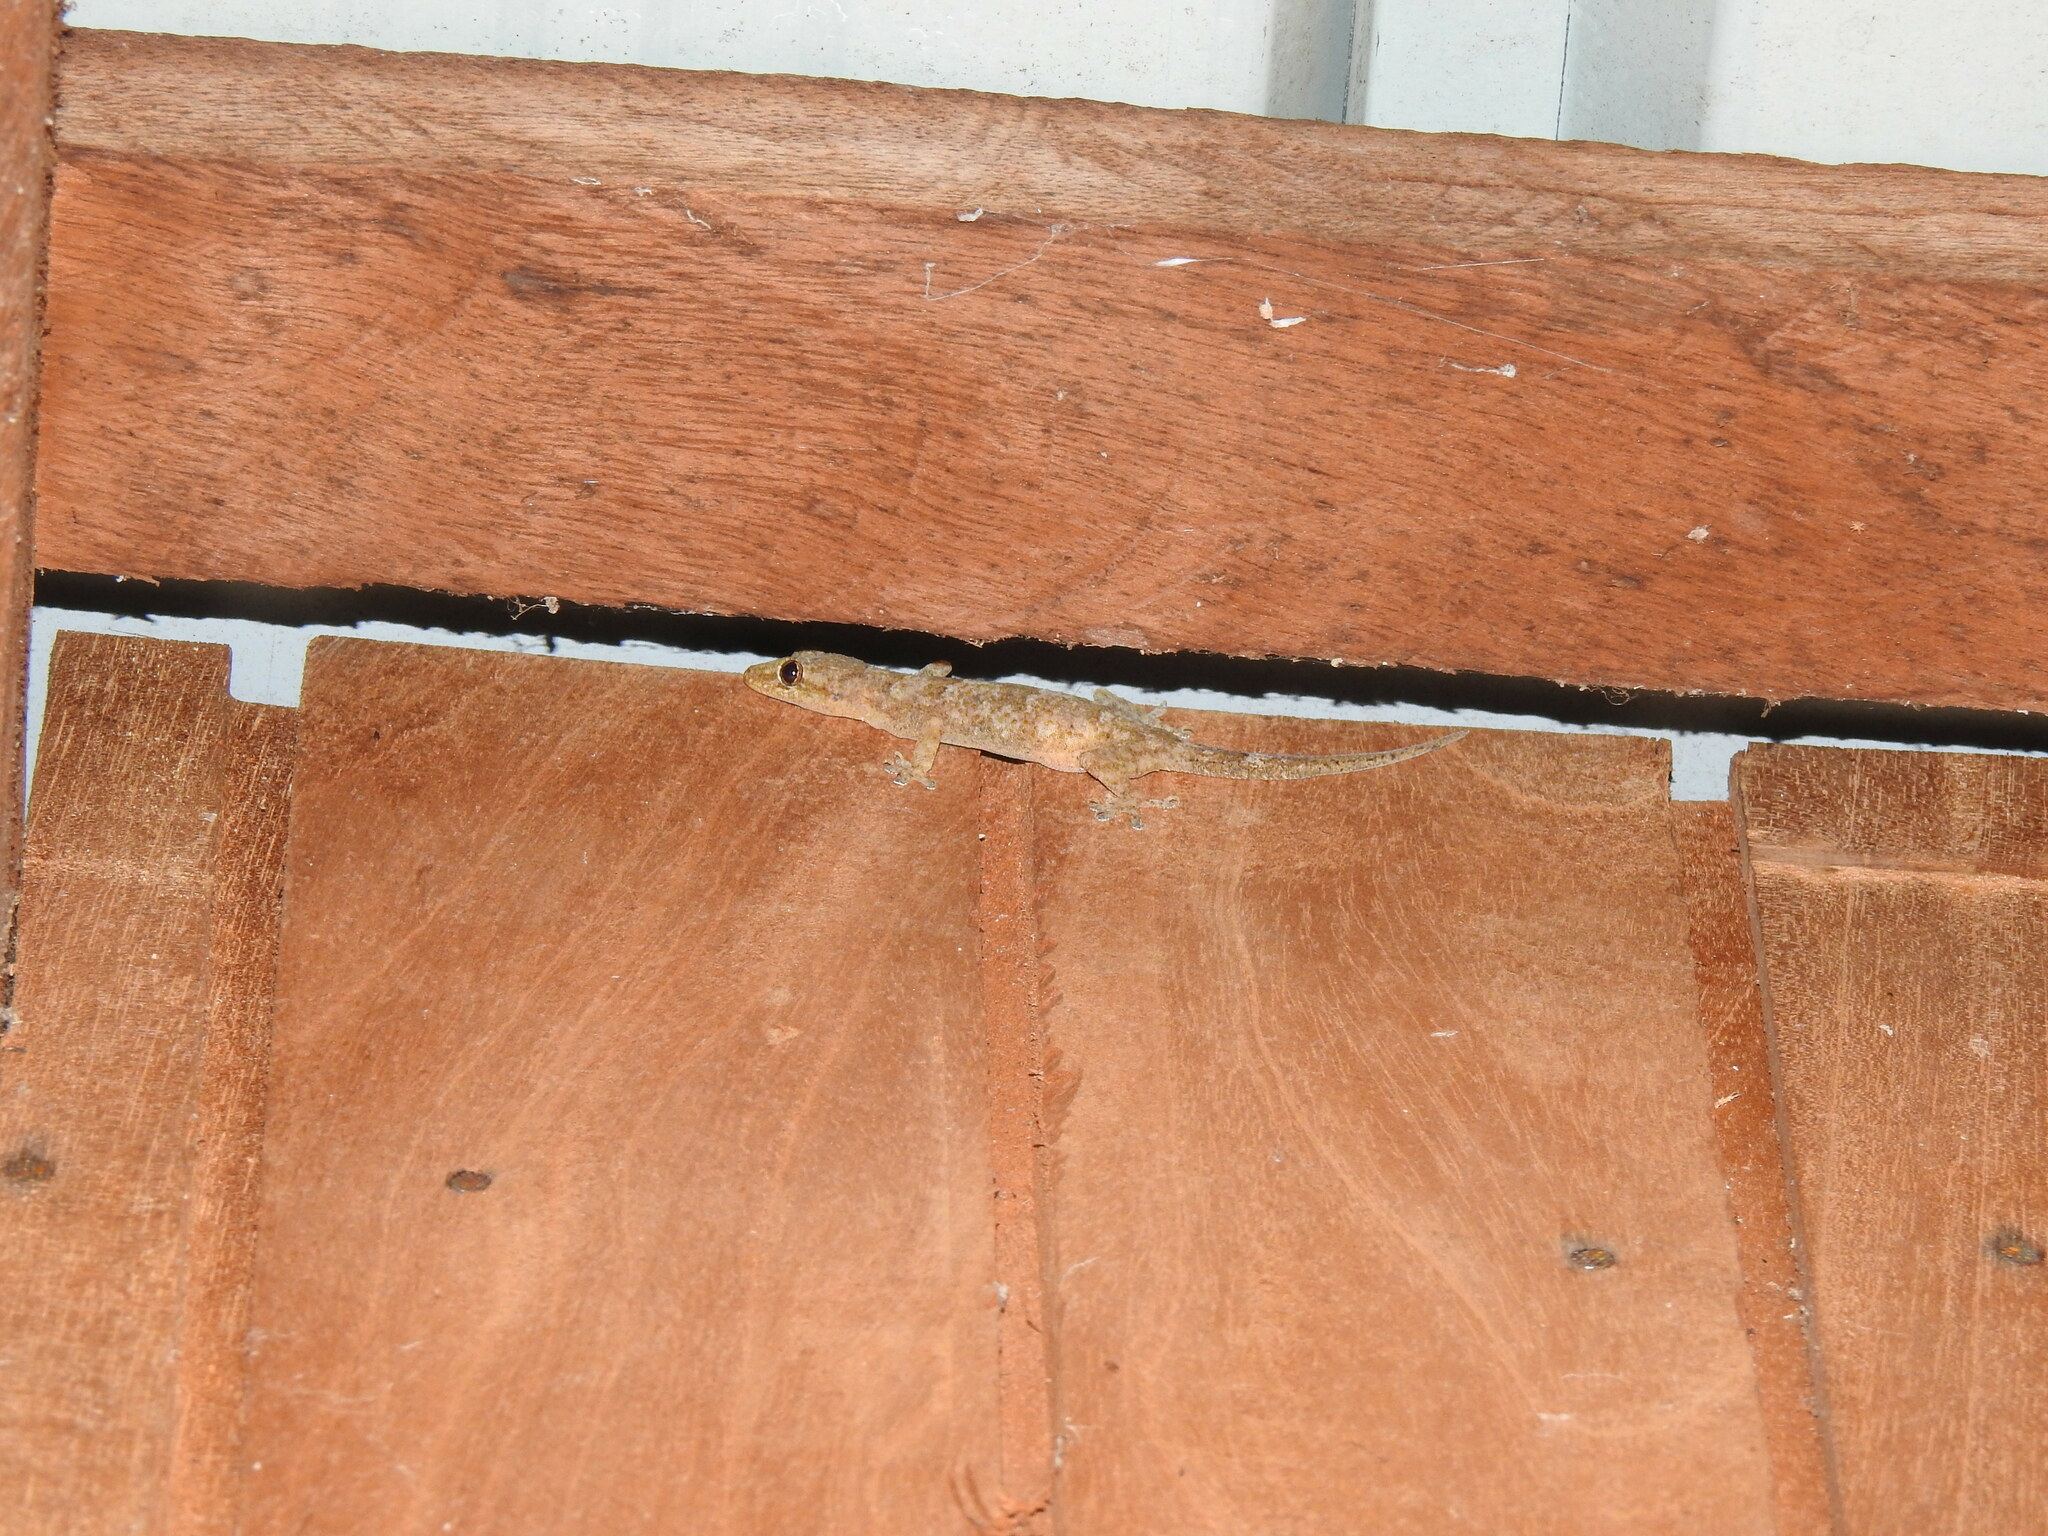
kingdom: Animalia
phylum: Chordata
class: Squamata
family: Gekkonidae
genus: Hemidactylus
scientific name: Hemidactylus mabouia
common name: House gecko
